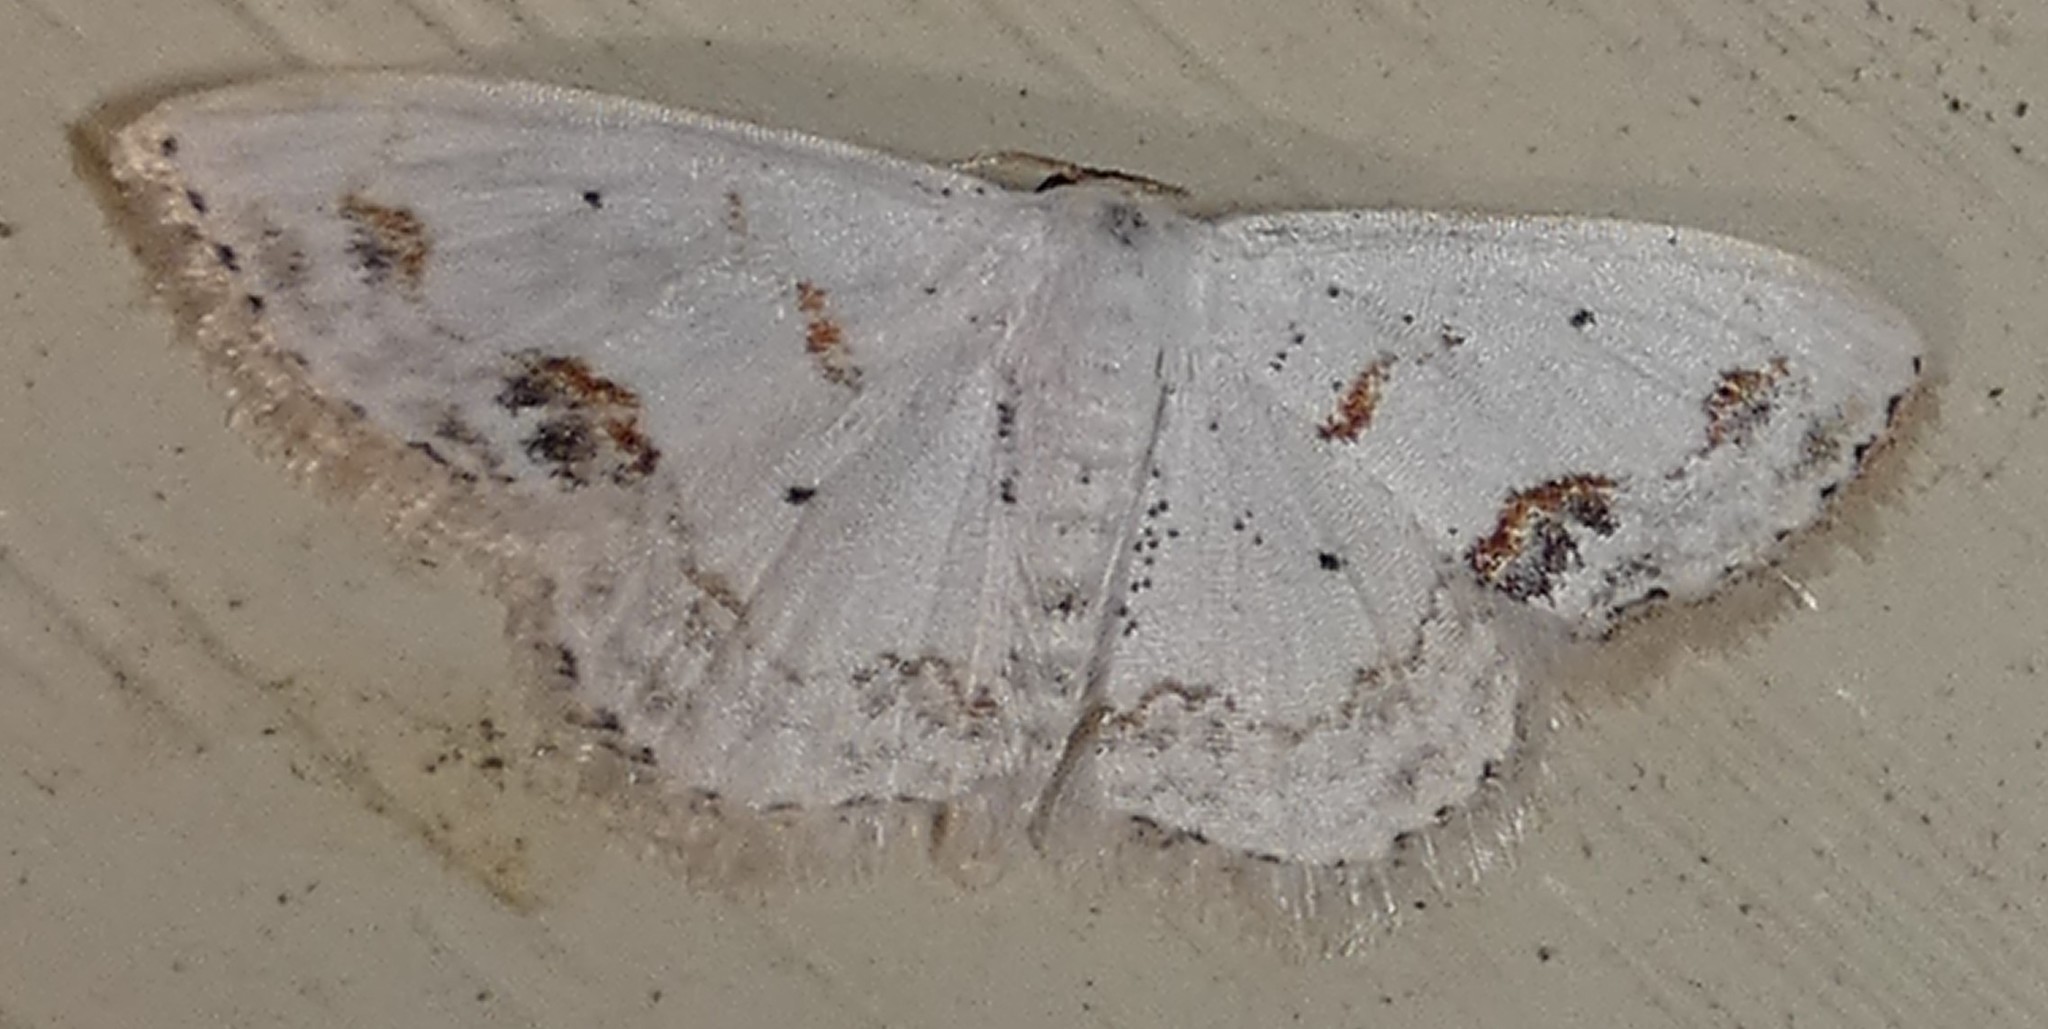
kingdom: Animalia
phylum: Arthropoda
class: Insecta
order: Lepidoptera
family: Geometridae
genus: Scopula
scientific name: Scopula lautaria
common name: Small frosted wave moth
